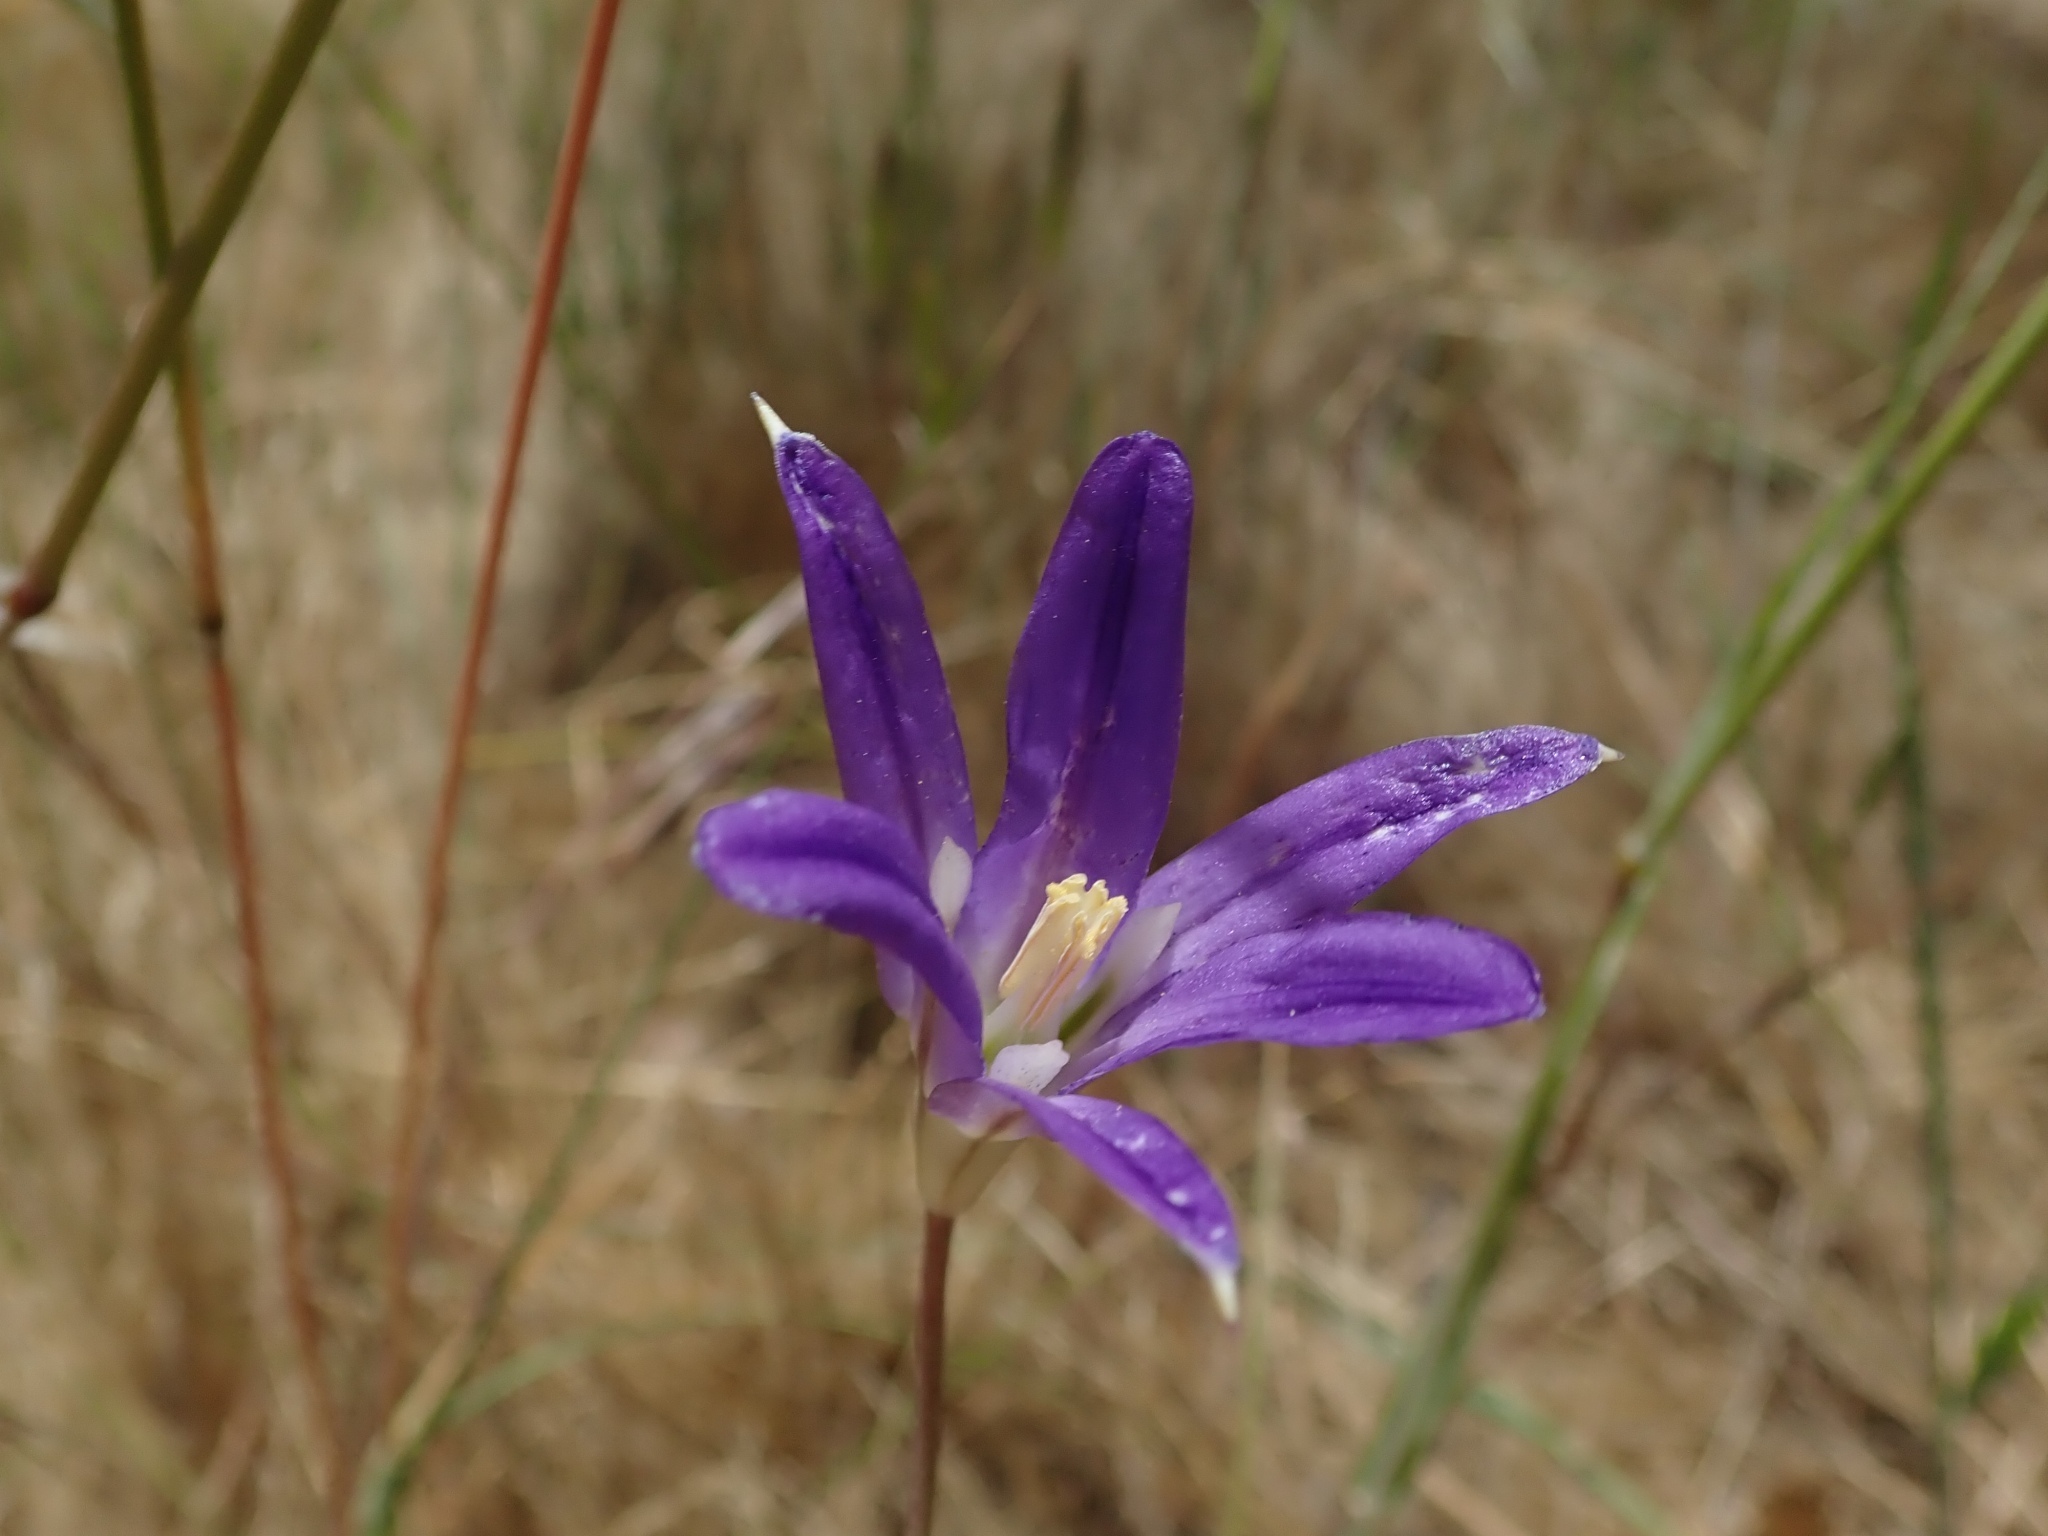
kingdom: Plantae
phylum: Tracheophyta
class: Liliopsida
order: Asparagales
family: Asparagaceae
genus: Brodiaea
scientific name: Brodiaea elegans
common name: Elegant cluster-lily
